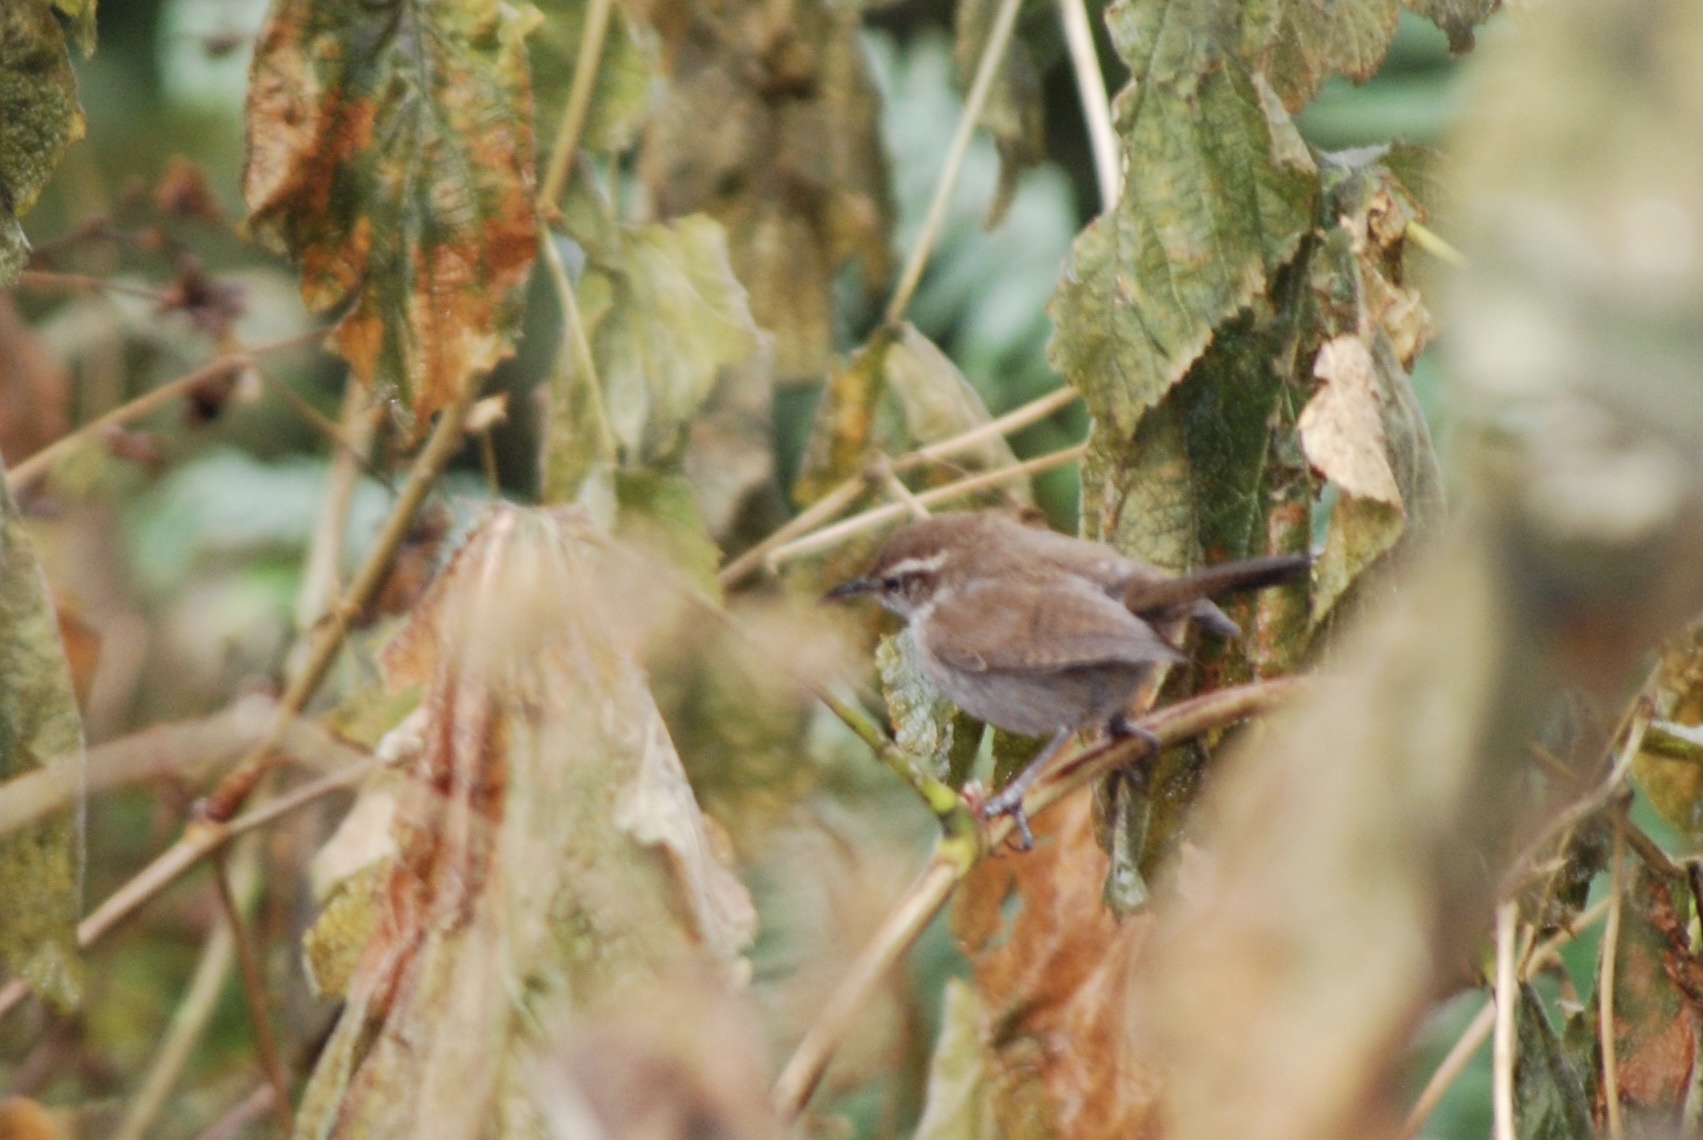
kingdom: Animalia
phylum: Chordata
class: Aves
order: Passeriformes
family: Troglodytidae
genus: Thryomanes
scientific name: Thryomanes bewickii
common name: Bewick's wren
